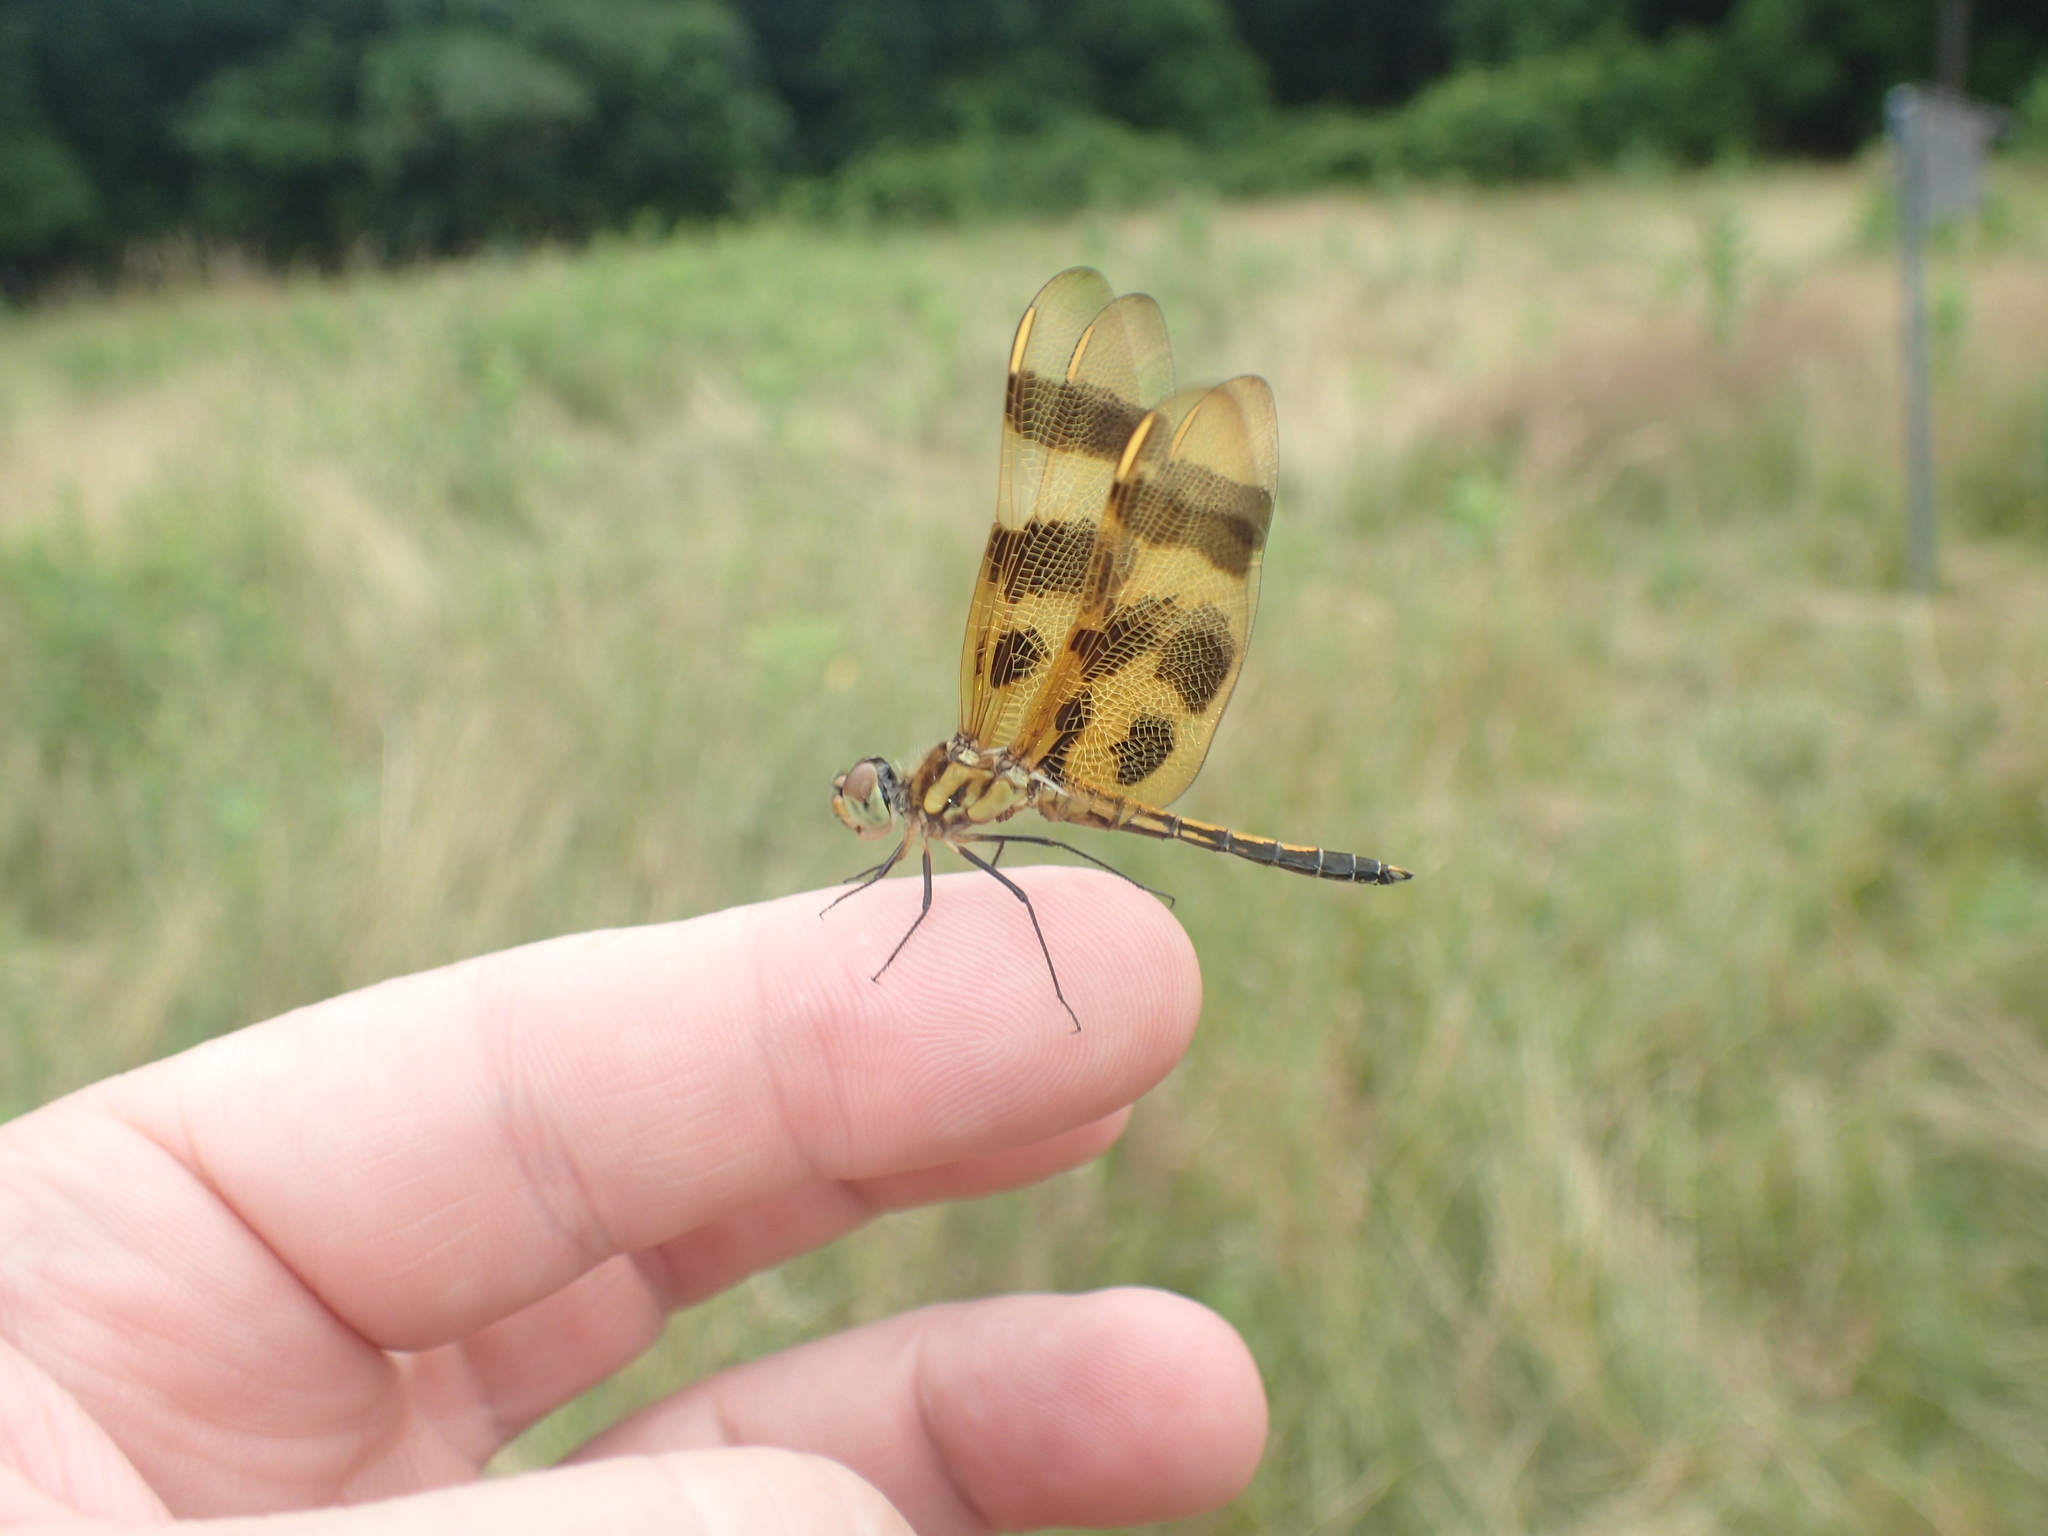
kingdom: Animalia
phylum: Arthropoda
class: Insecta
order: Odonata
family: Libellulidae
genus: Celithemis
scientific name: Celithemis eponina
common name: Halloween pennant
